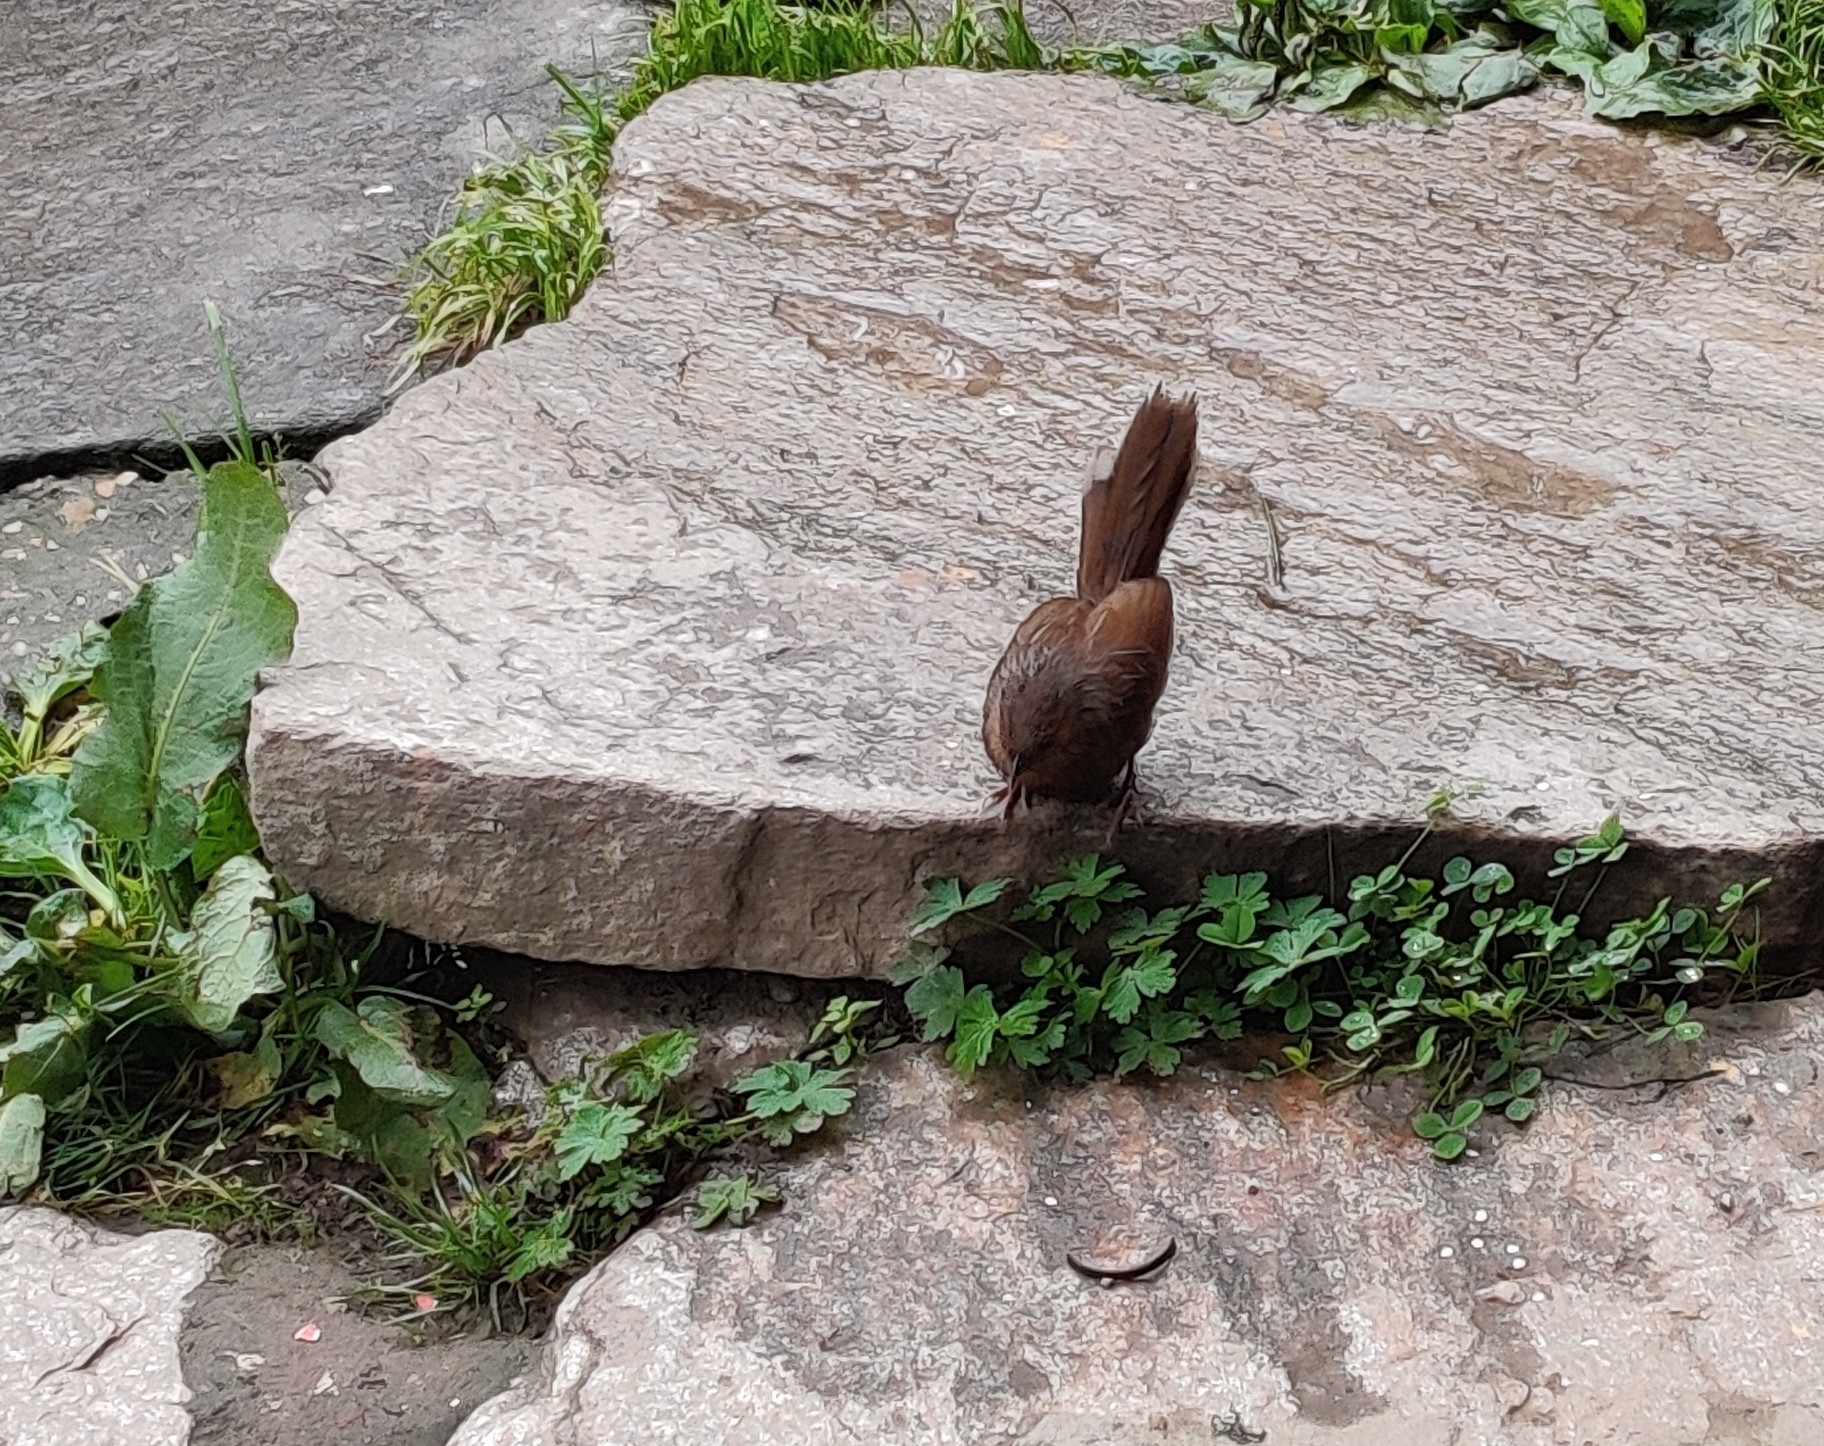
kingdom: Animalia
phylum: Chordata
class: Aves
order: Passeriformes
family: Leiothrichidae
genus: Trochalopteron
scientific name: Trochalopteron lineatum
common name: Streaked laughingthrush
